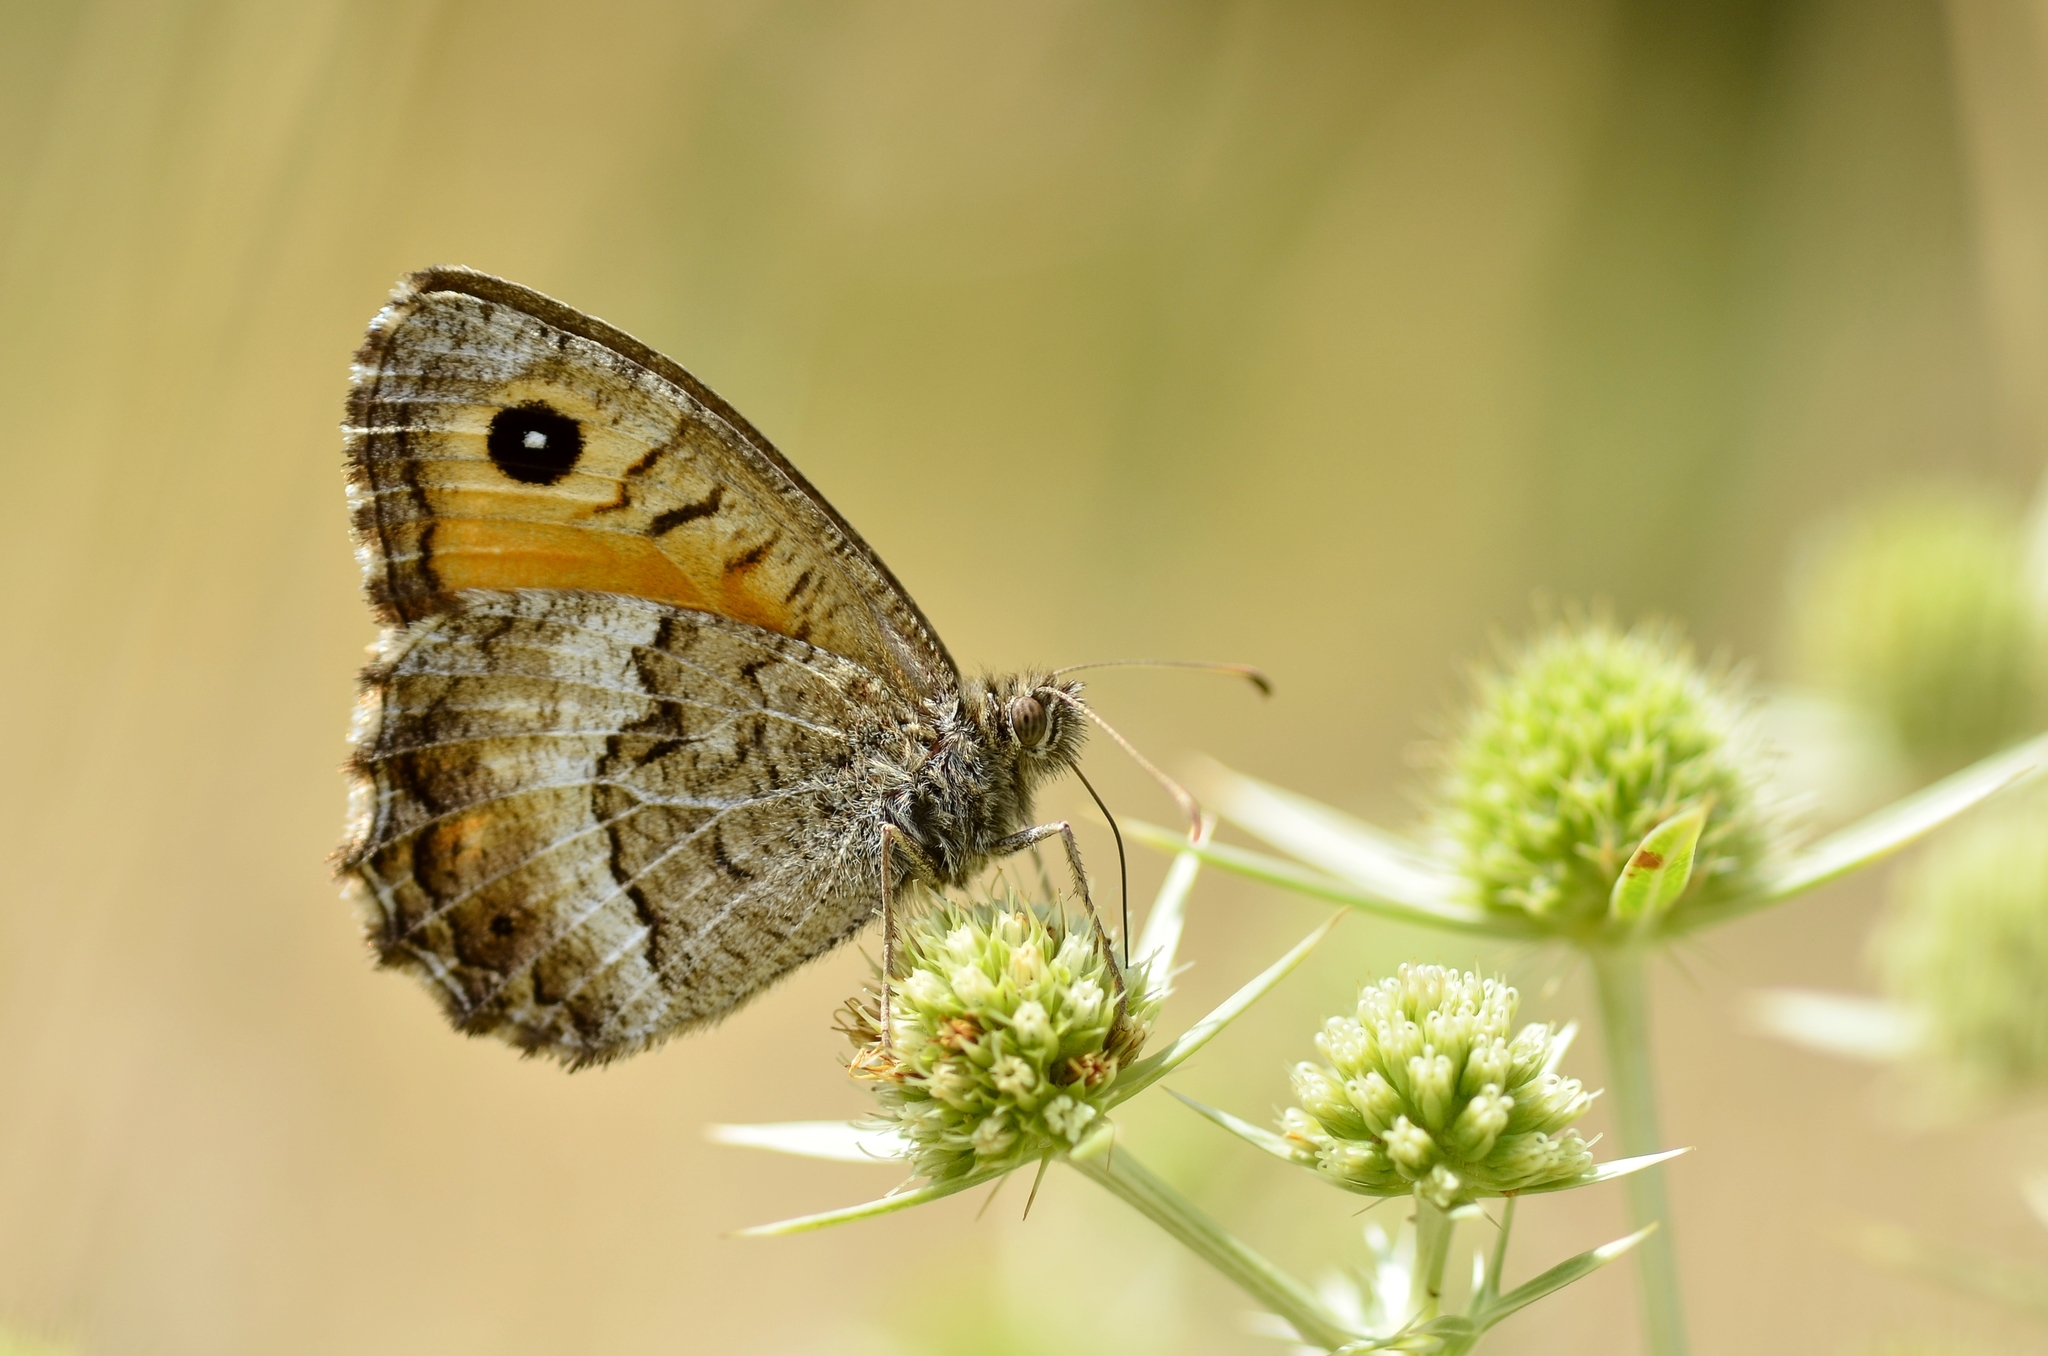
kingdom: Animalia
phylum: Arthropoda
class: Insecta
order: Lepidoptera
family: Nymphalidae
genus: Arethusana
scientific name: Arethusana arethusa
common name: False grayling
